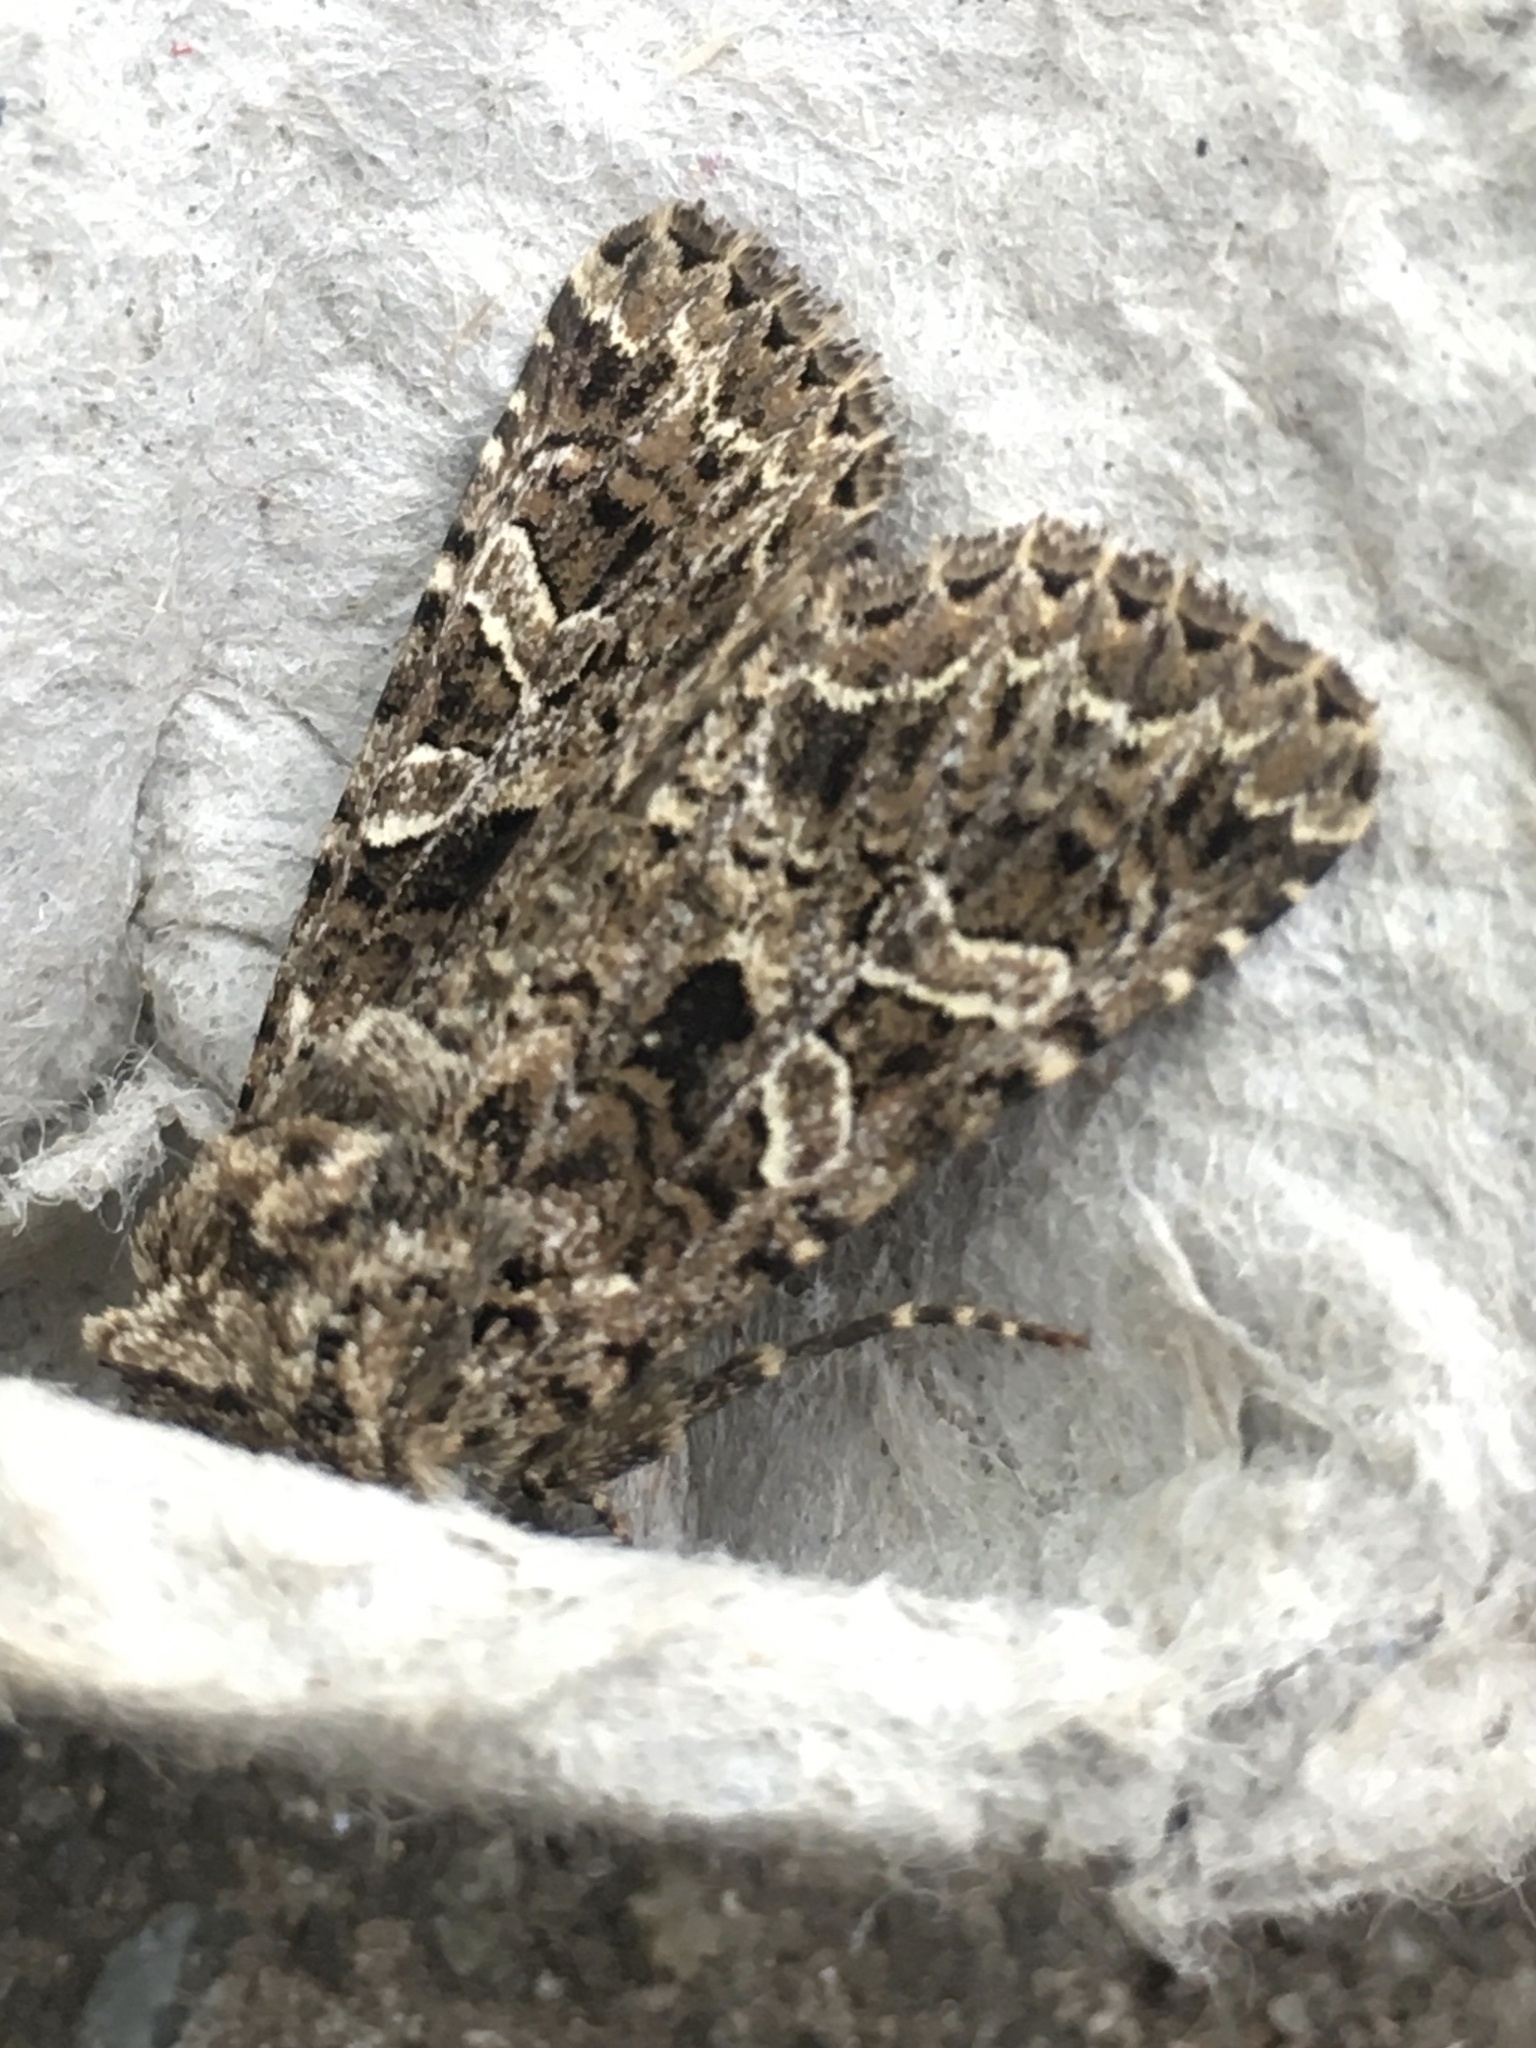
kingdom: Animalia
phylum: Arthropoda
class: Insecta
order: Lepidoptera
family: Noctuidae
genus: Hadena
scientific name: Hadena bicruris
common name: Lychnis
